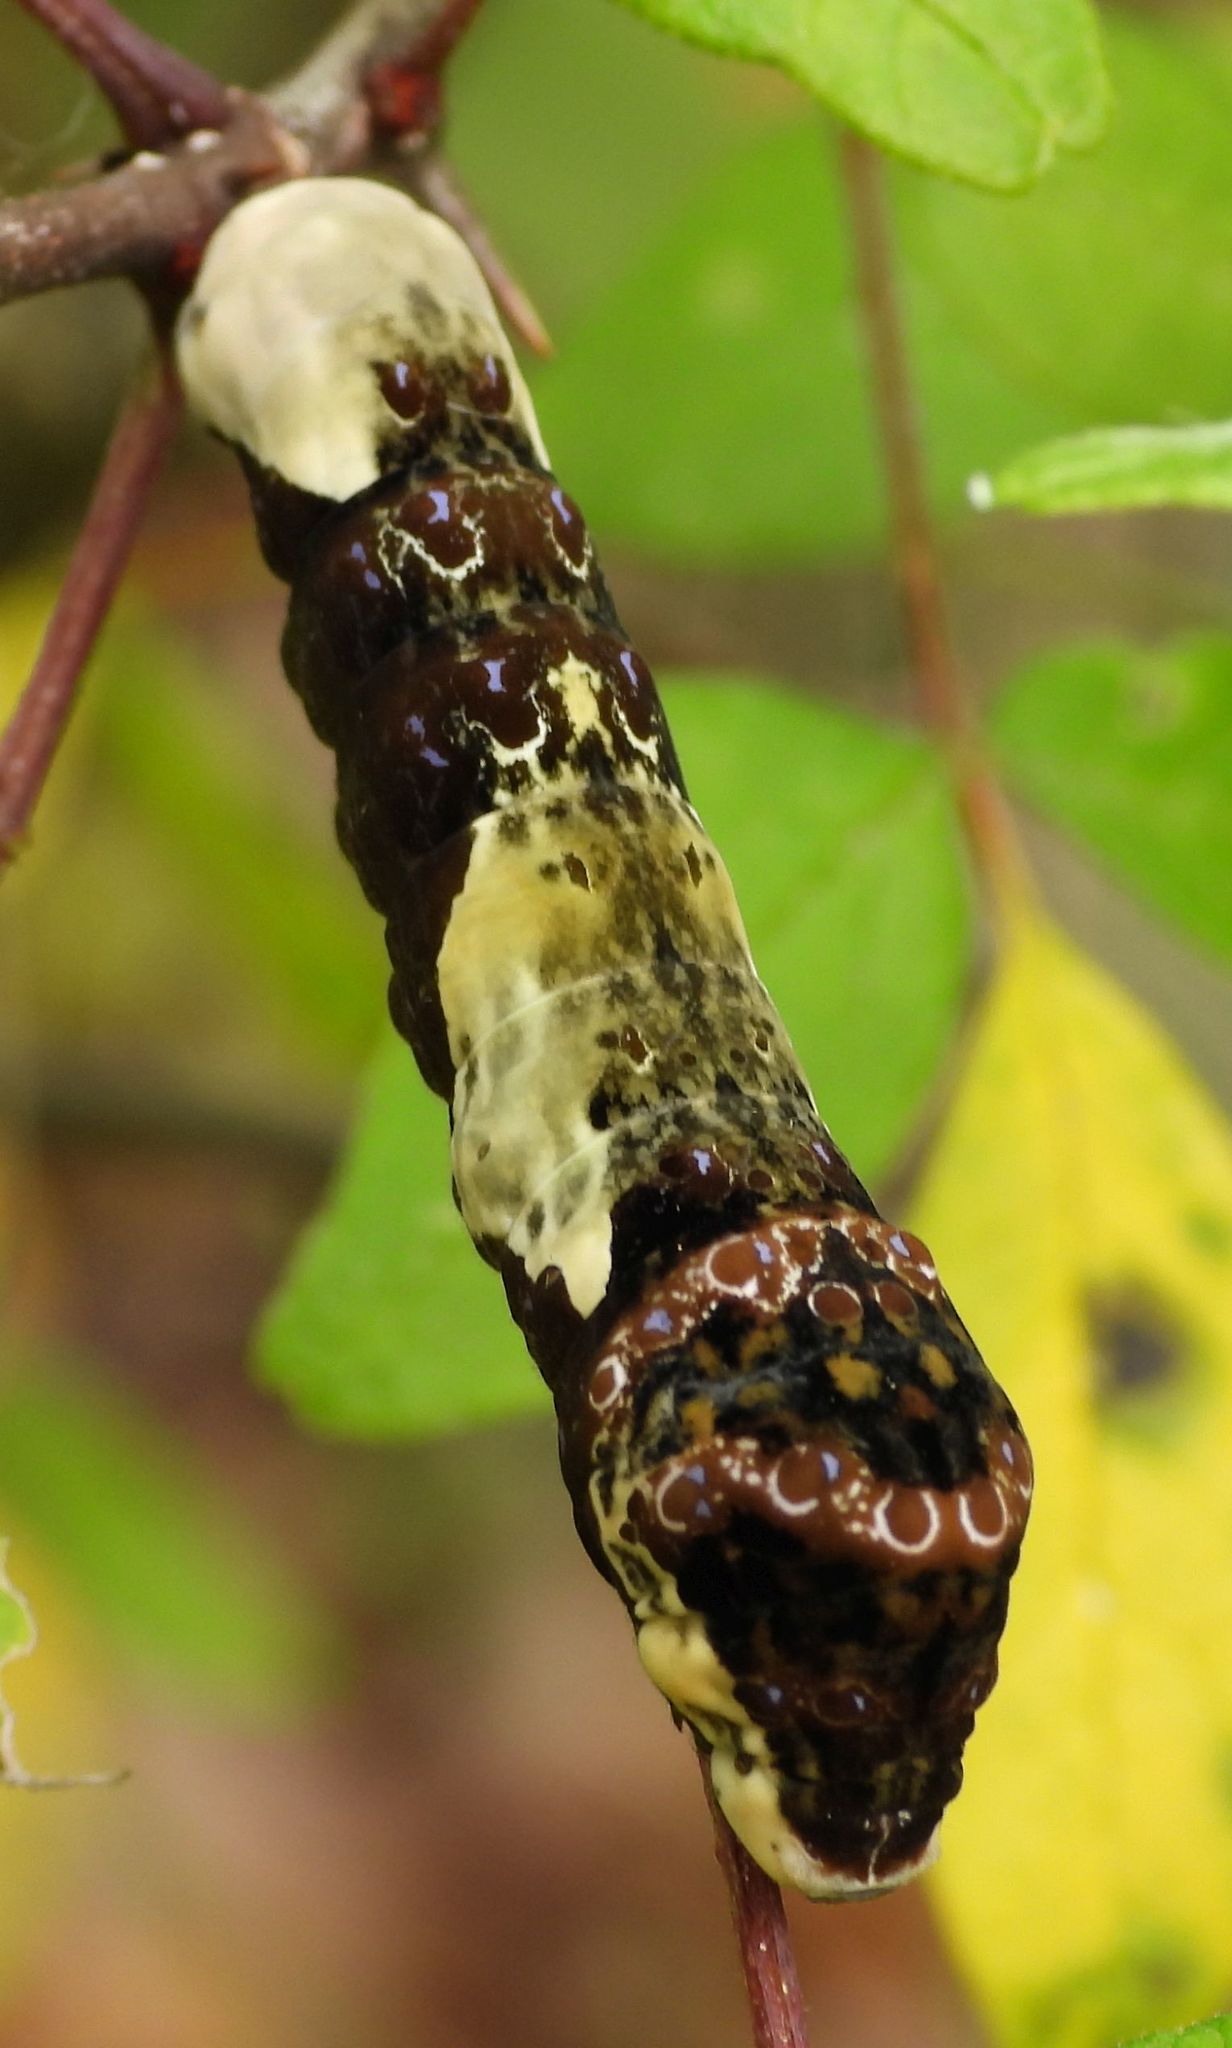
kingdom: Animalia
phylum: Arthropoda
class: Insecta
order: Lepidoptera
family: Papilionidae
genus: Papilio
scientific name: Papilio cresphontes
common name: Giant swallowtail
